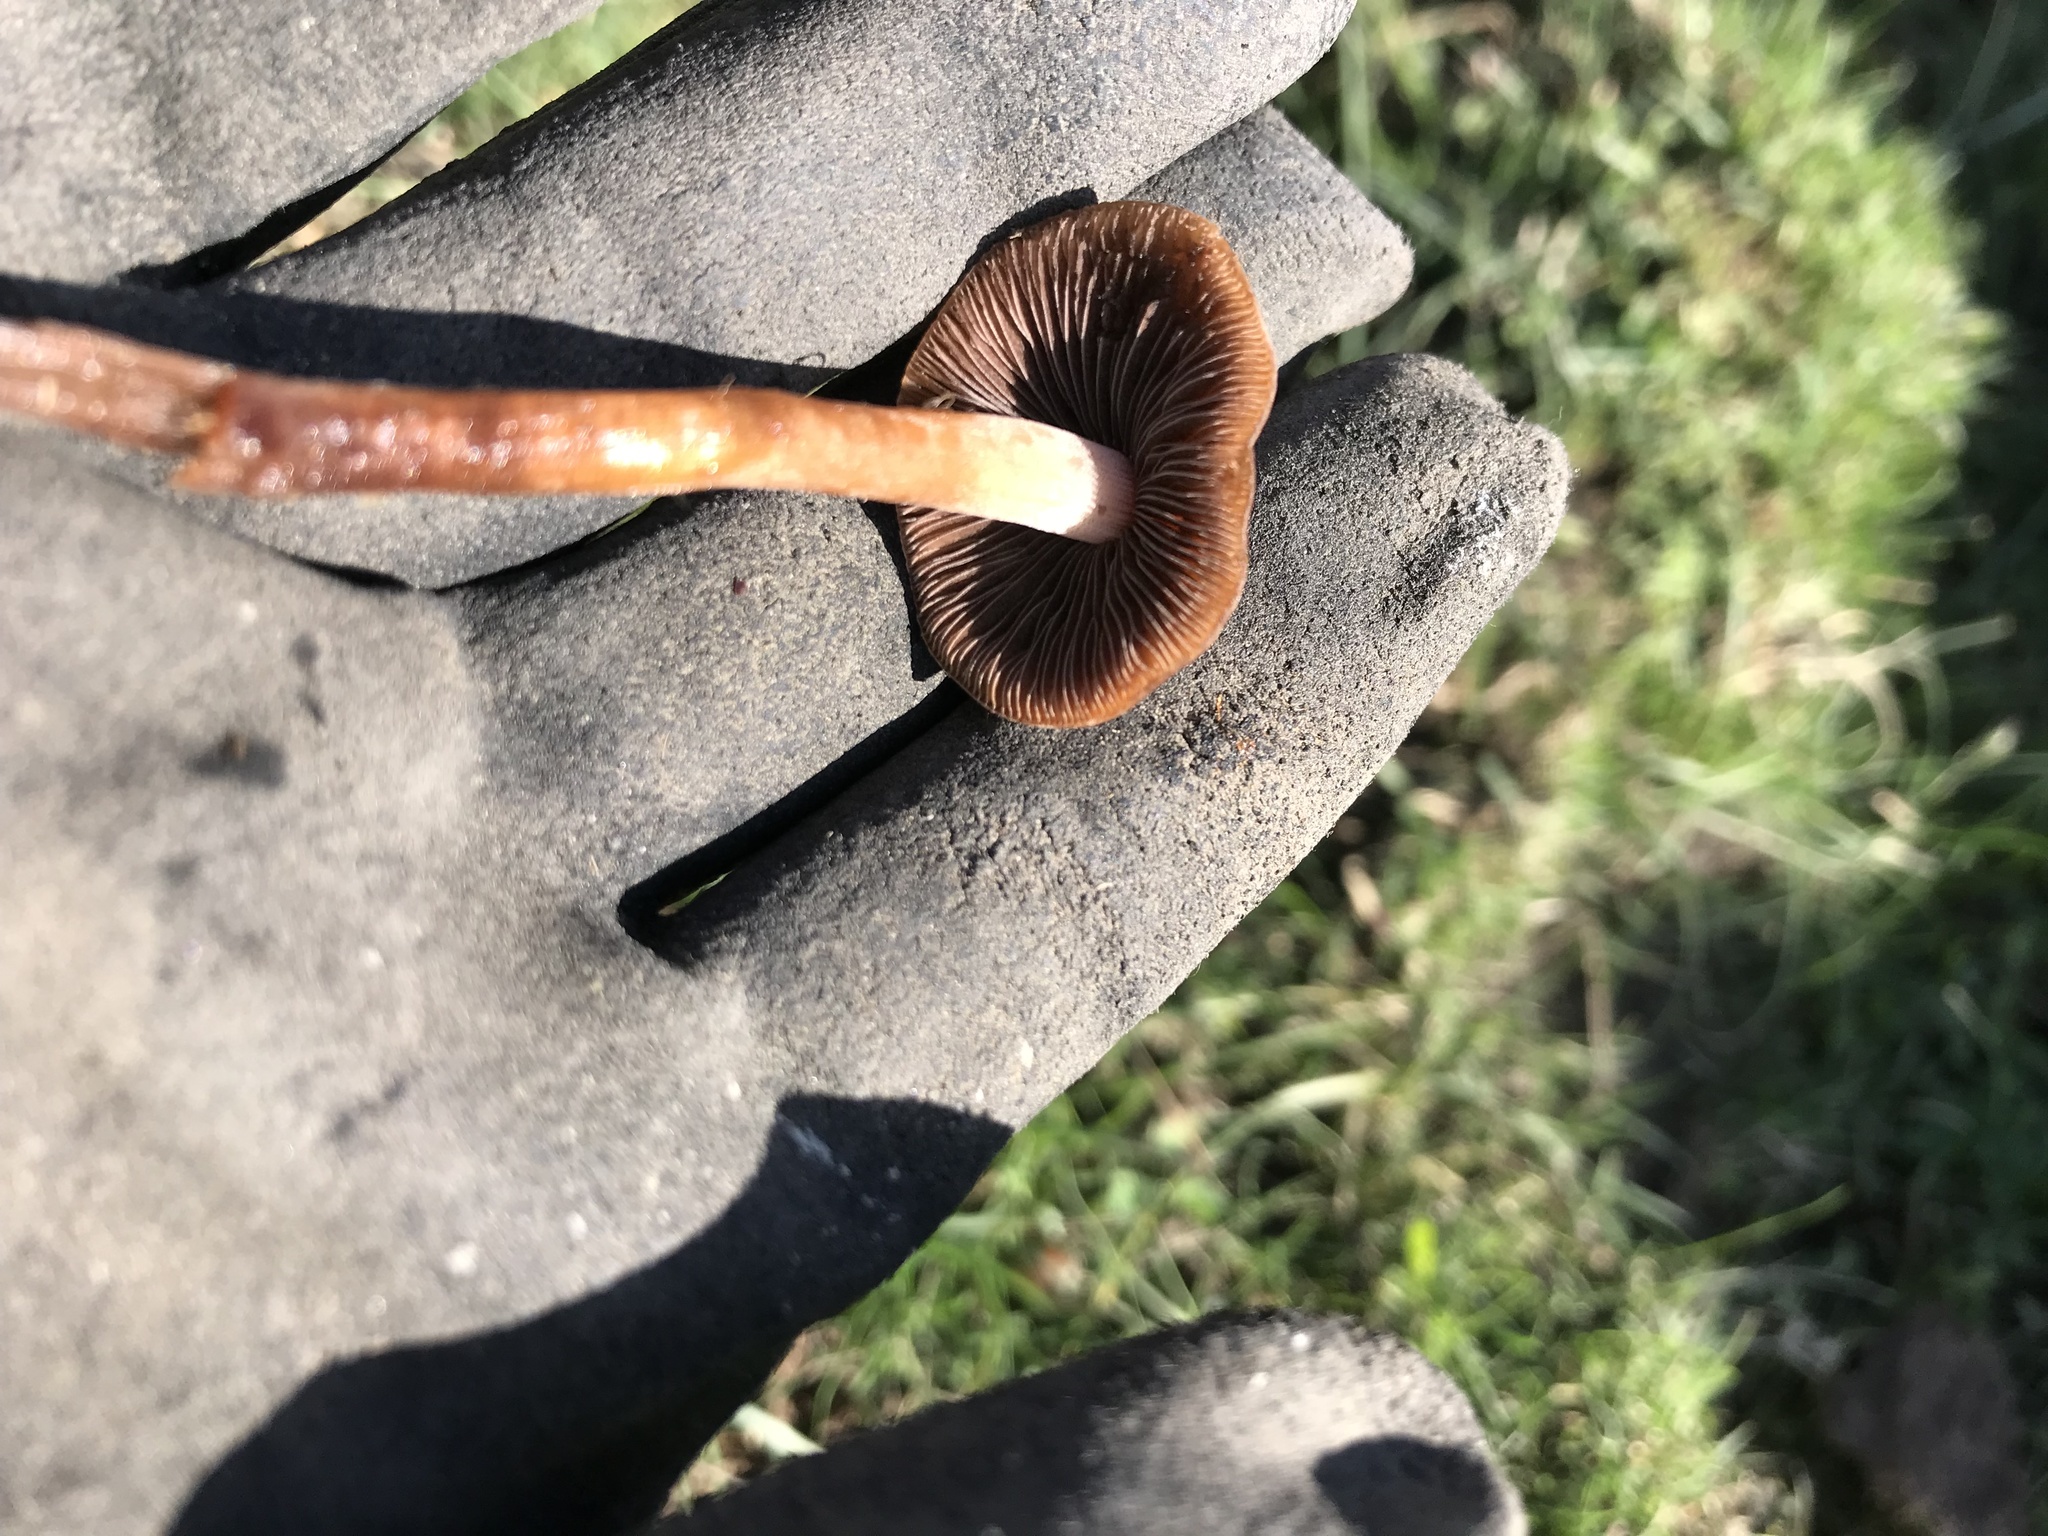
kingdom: Fungi
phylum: Basidiomycota
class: Agaricomycetes
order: Agaricales
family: Bolbitiaceae
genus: Panaeolus
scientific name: Panaeolus cinctulus
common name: Banded mottlegill
